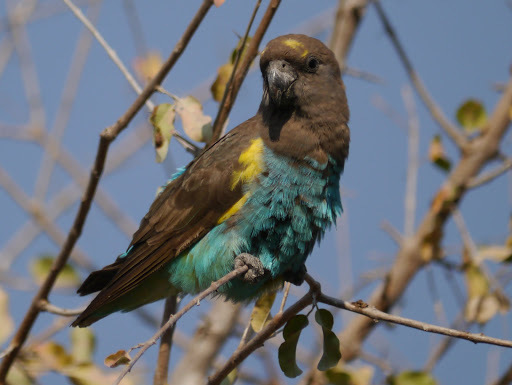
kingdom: Animalia
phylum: Chordata
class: Aves
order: Psittaciformes
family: Psittacidae
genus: Poicephalus
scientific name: Poicephalus meyeri
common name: Meyer's parrot
